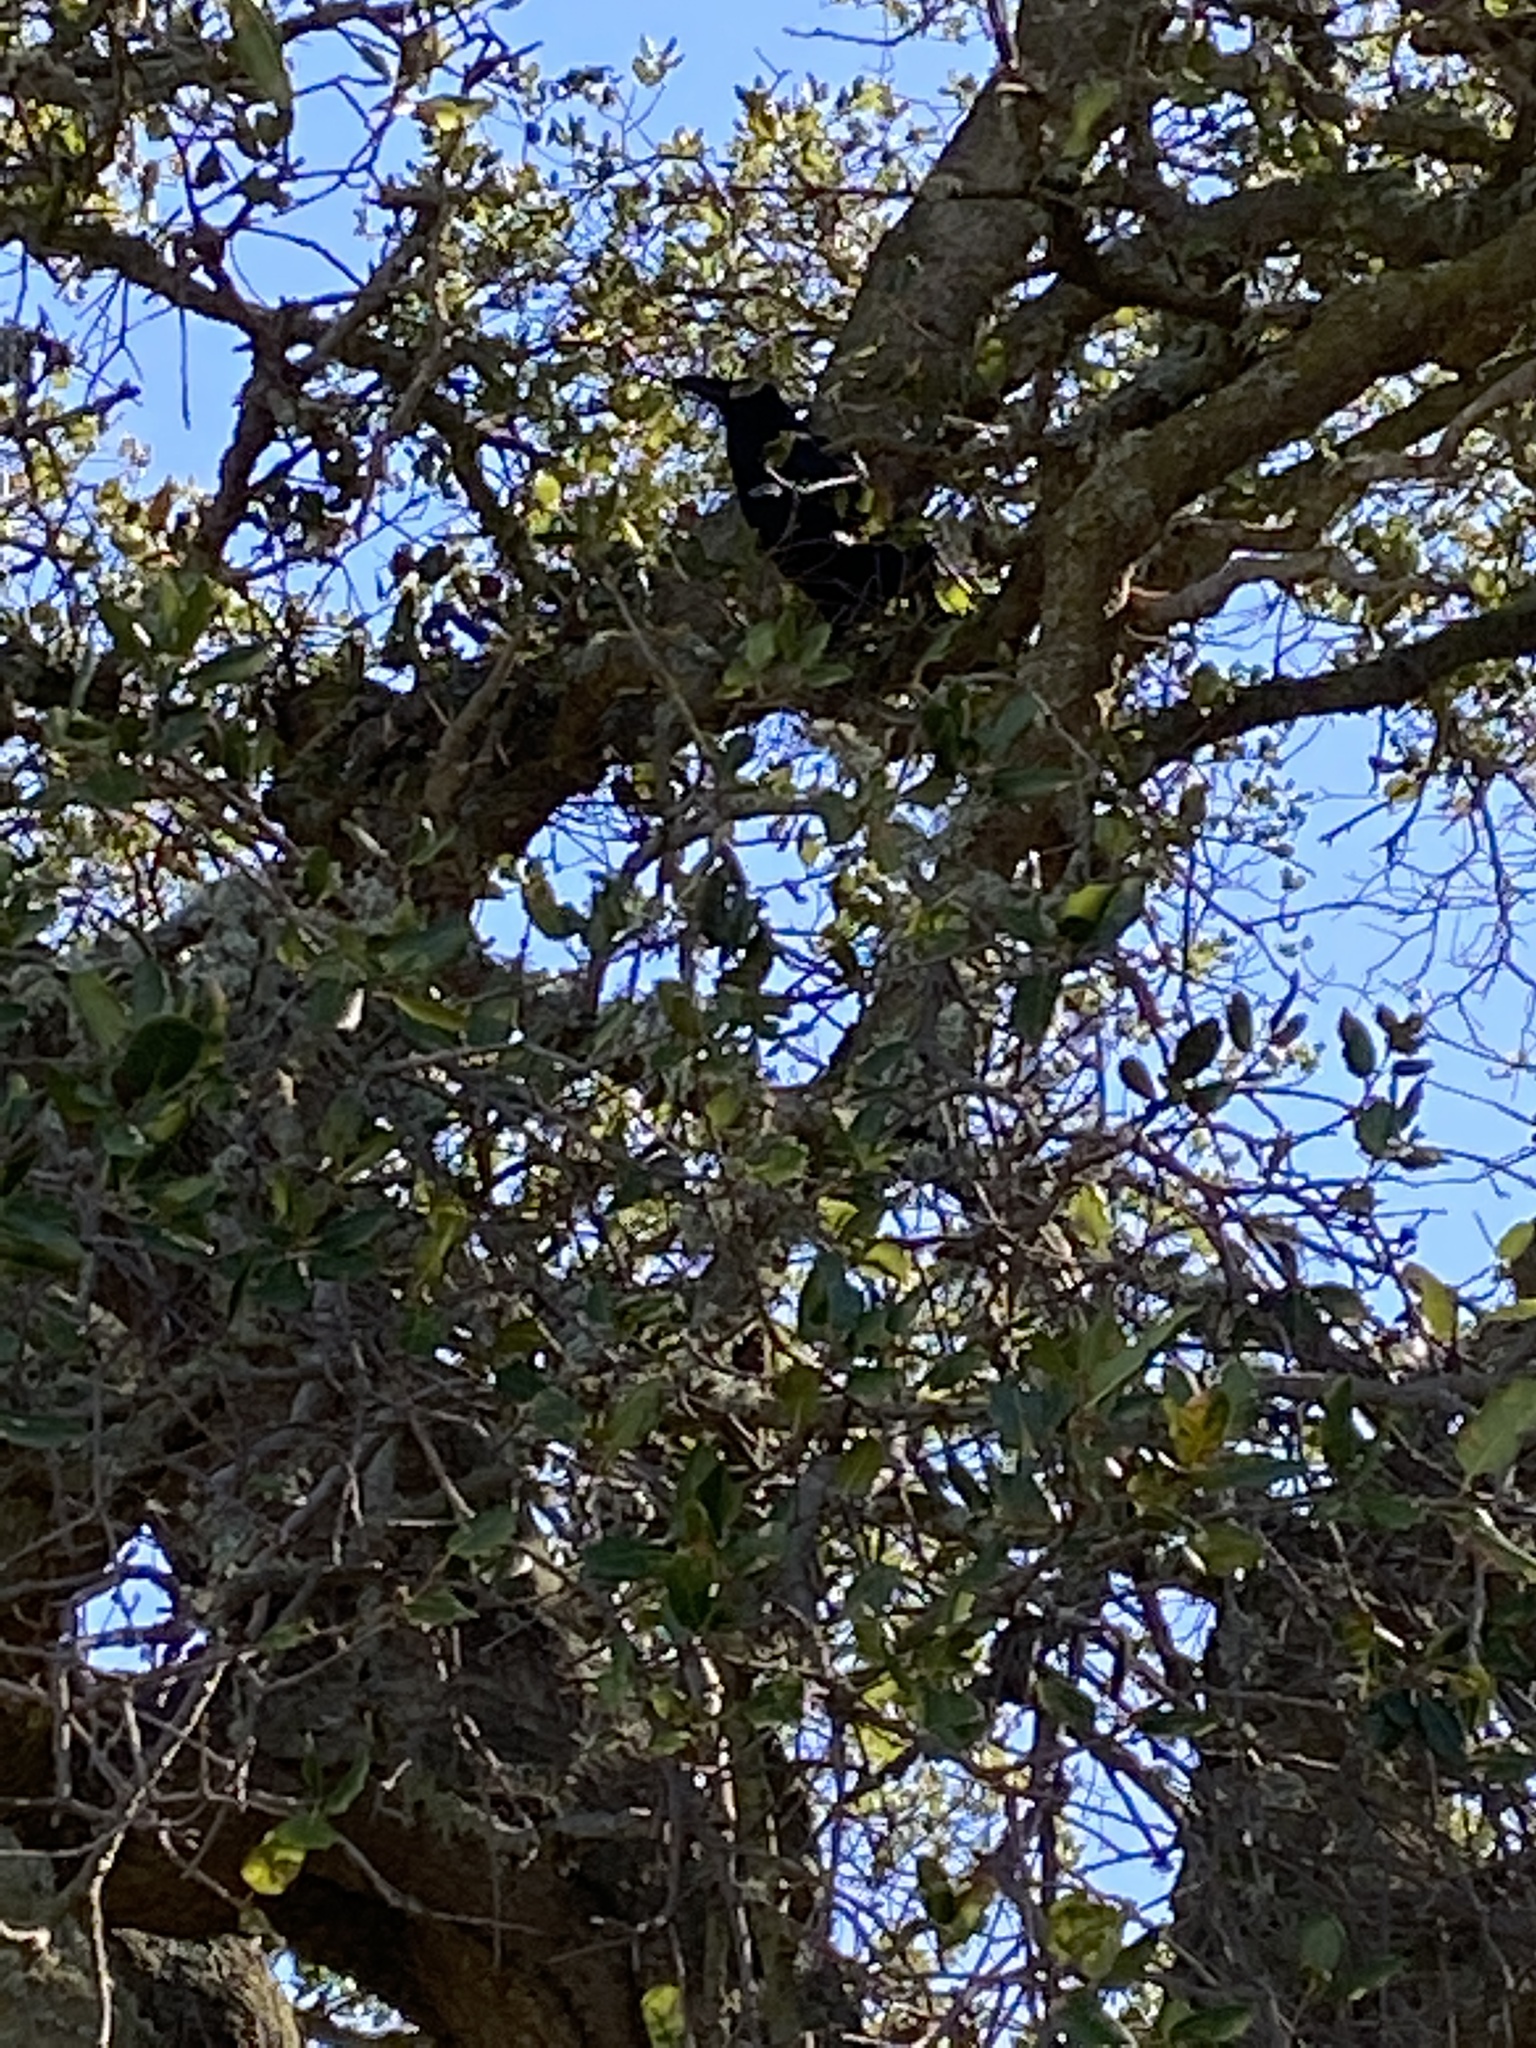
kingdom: Animalia
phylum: Chordata
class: Aves
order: Passeriformes
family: Corvidae
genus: Corvus
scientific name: Corvus corax
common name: Common raven
